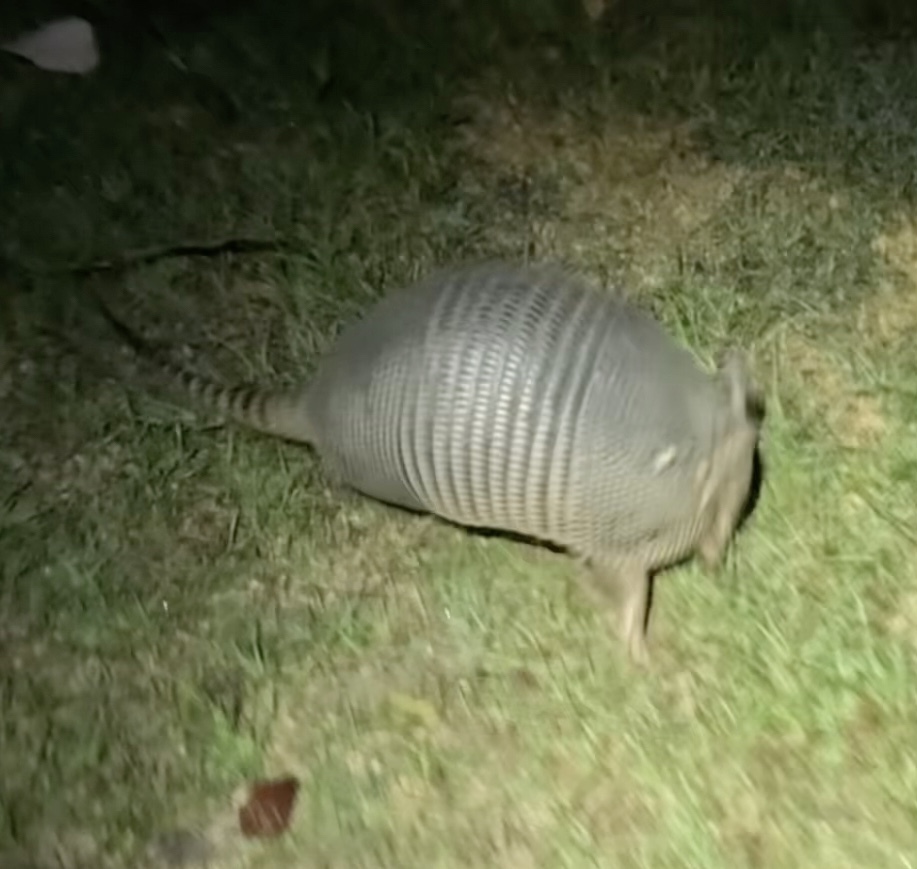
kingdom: Animalia
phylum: Chordata
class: Mammalia
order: Cingulata
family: Dasypodidae
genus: Dasypus
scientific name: Dasypus novemcinctus
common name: Nine-banded armadillo
